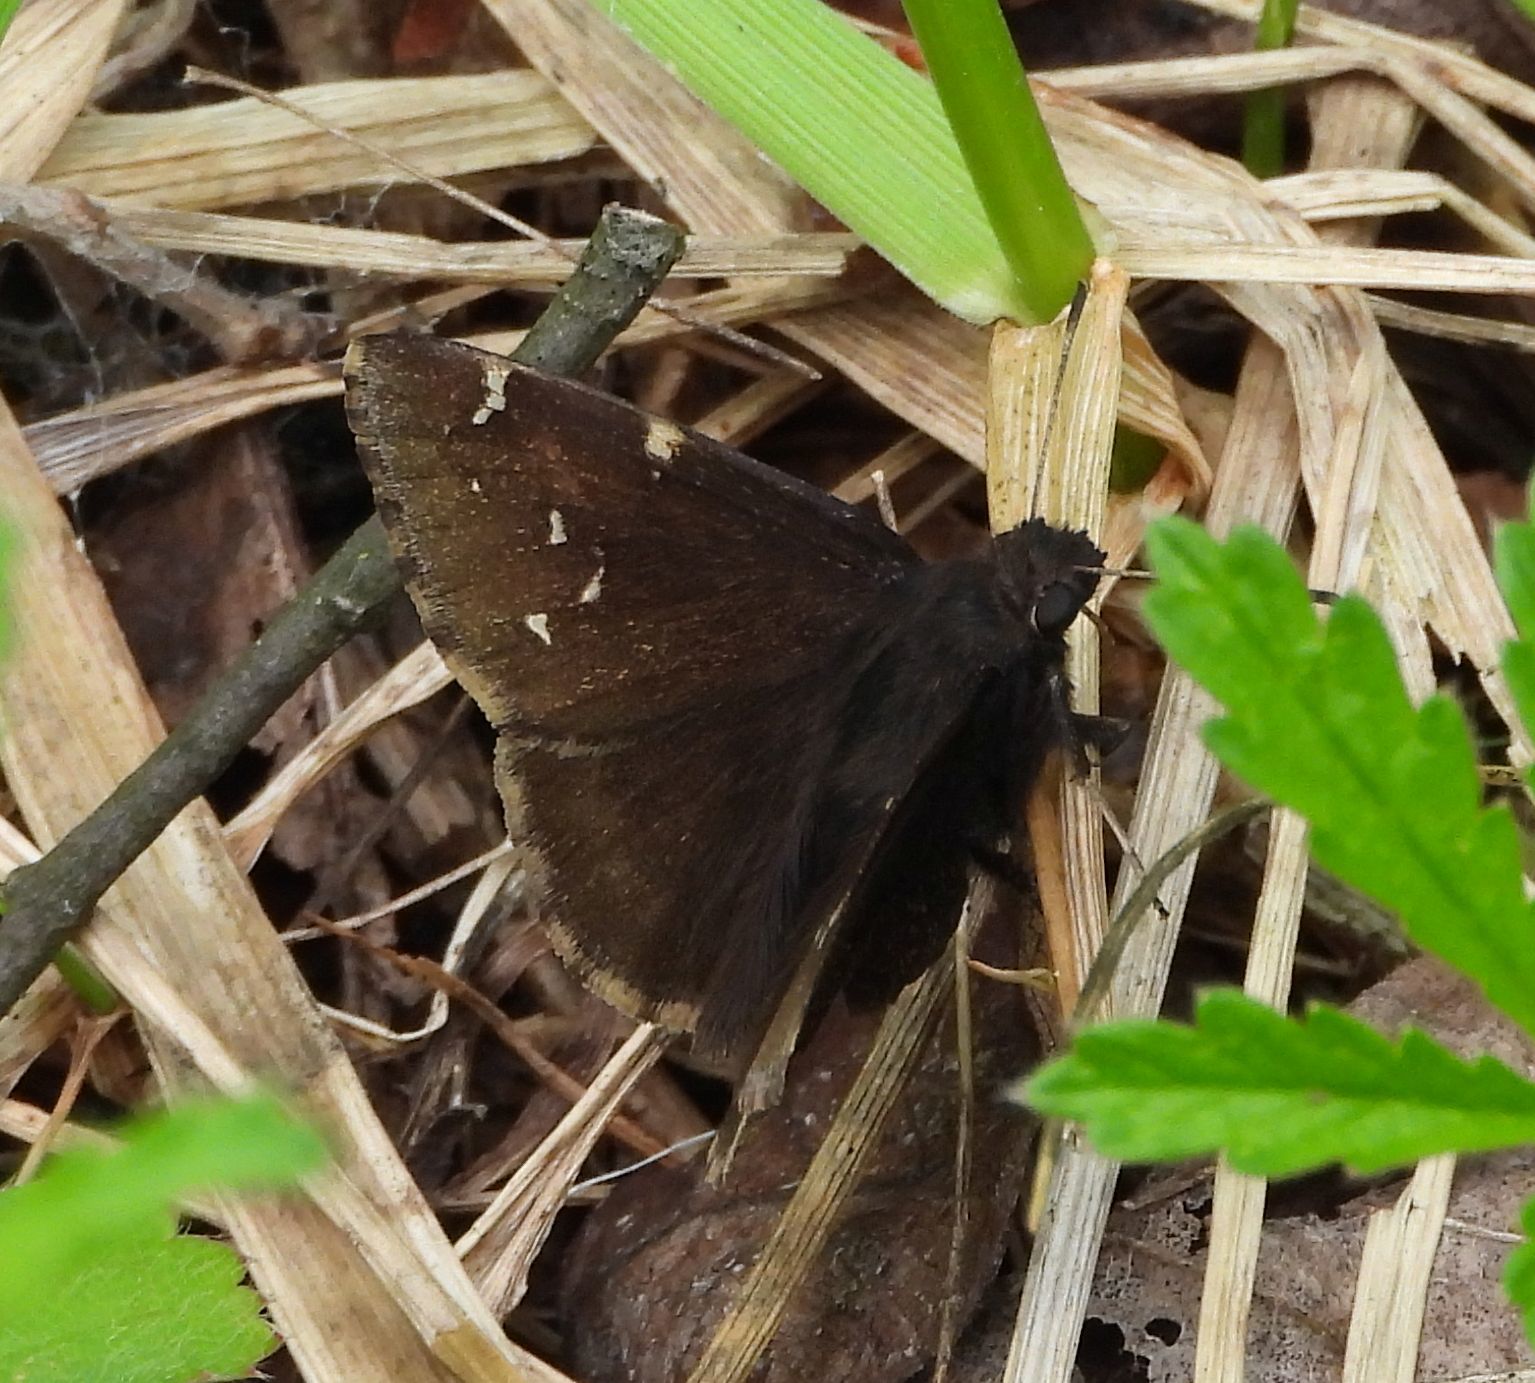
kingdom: Animalia
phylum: Arthropoda
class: Insecta
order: Lepidoptera
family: Hesperiidae
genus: Thorybes
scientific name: Thorybes pylades
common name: Northern cloudywing
